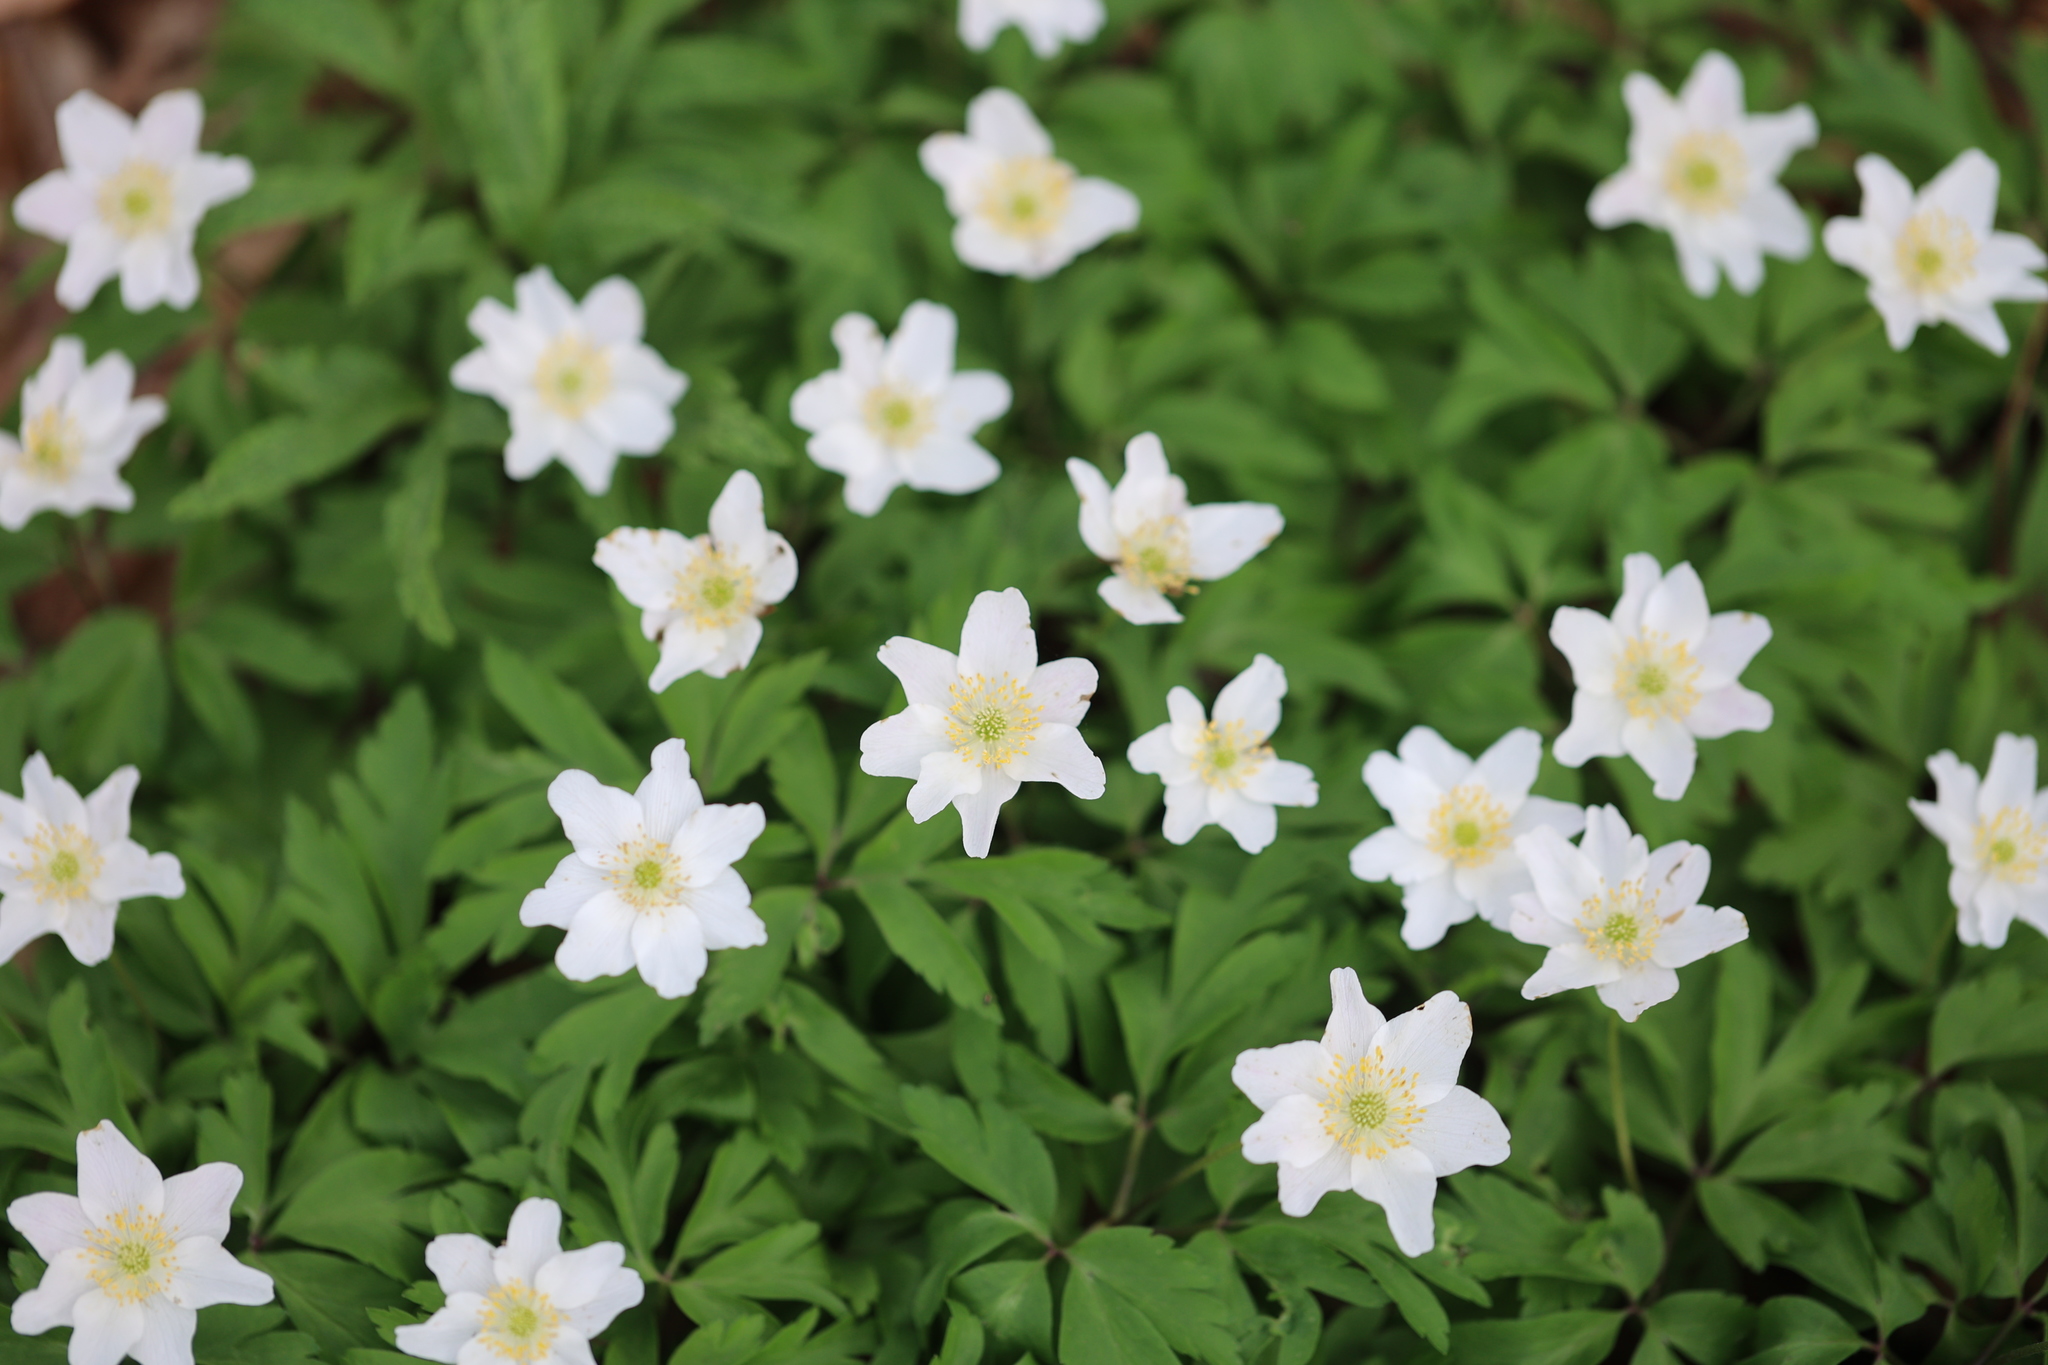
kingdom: Plantae
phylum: Tracheophyta
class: Magnoliopsida
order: Ranunculales
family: Ranunculaceae
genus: Anemone
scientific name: Anemone nemorosa
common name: Wood anemone
